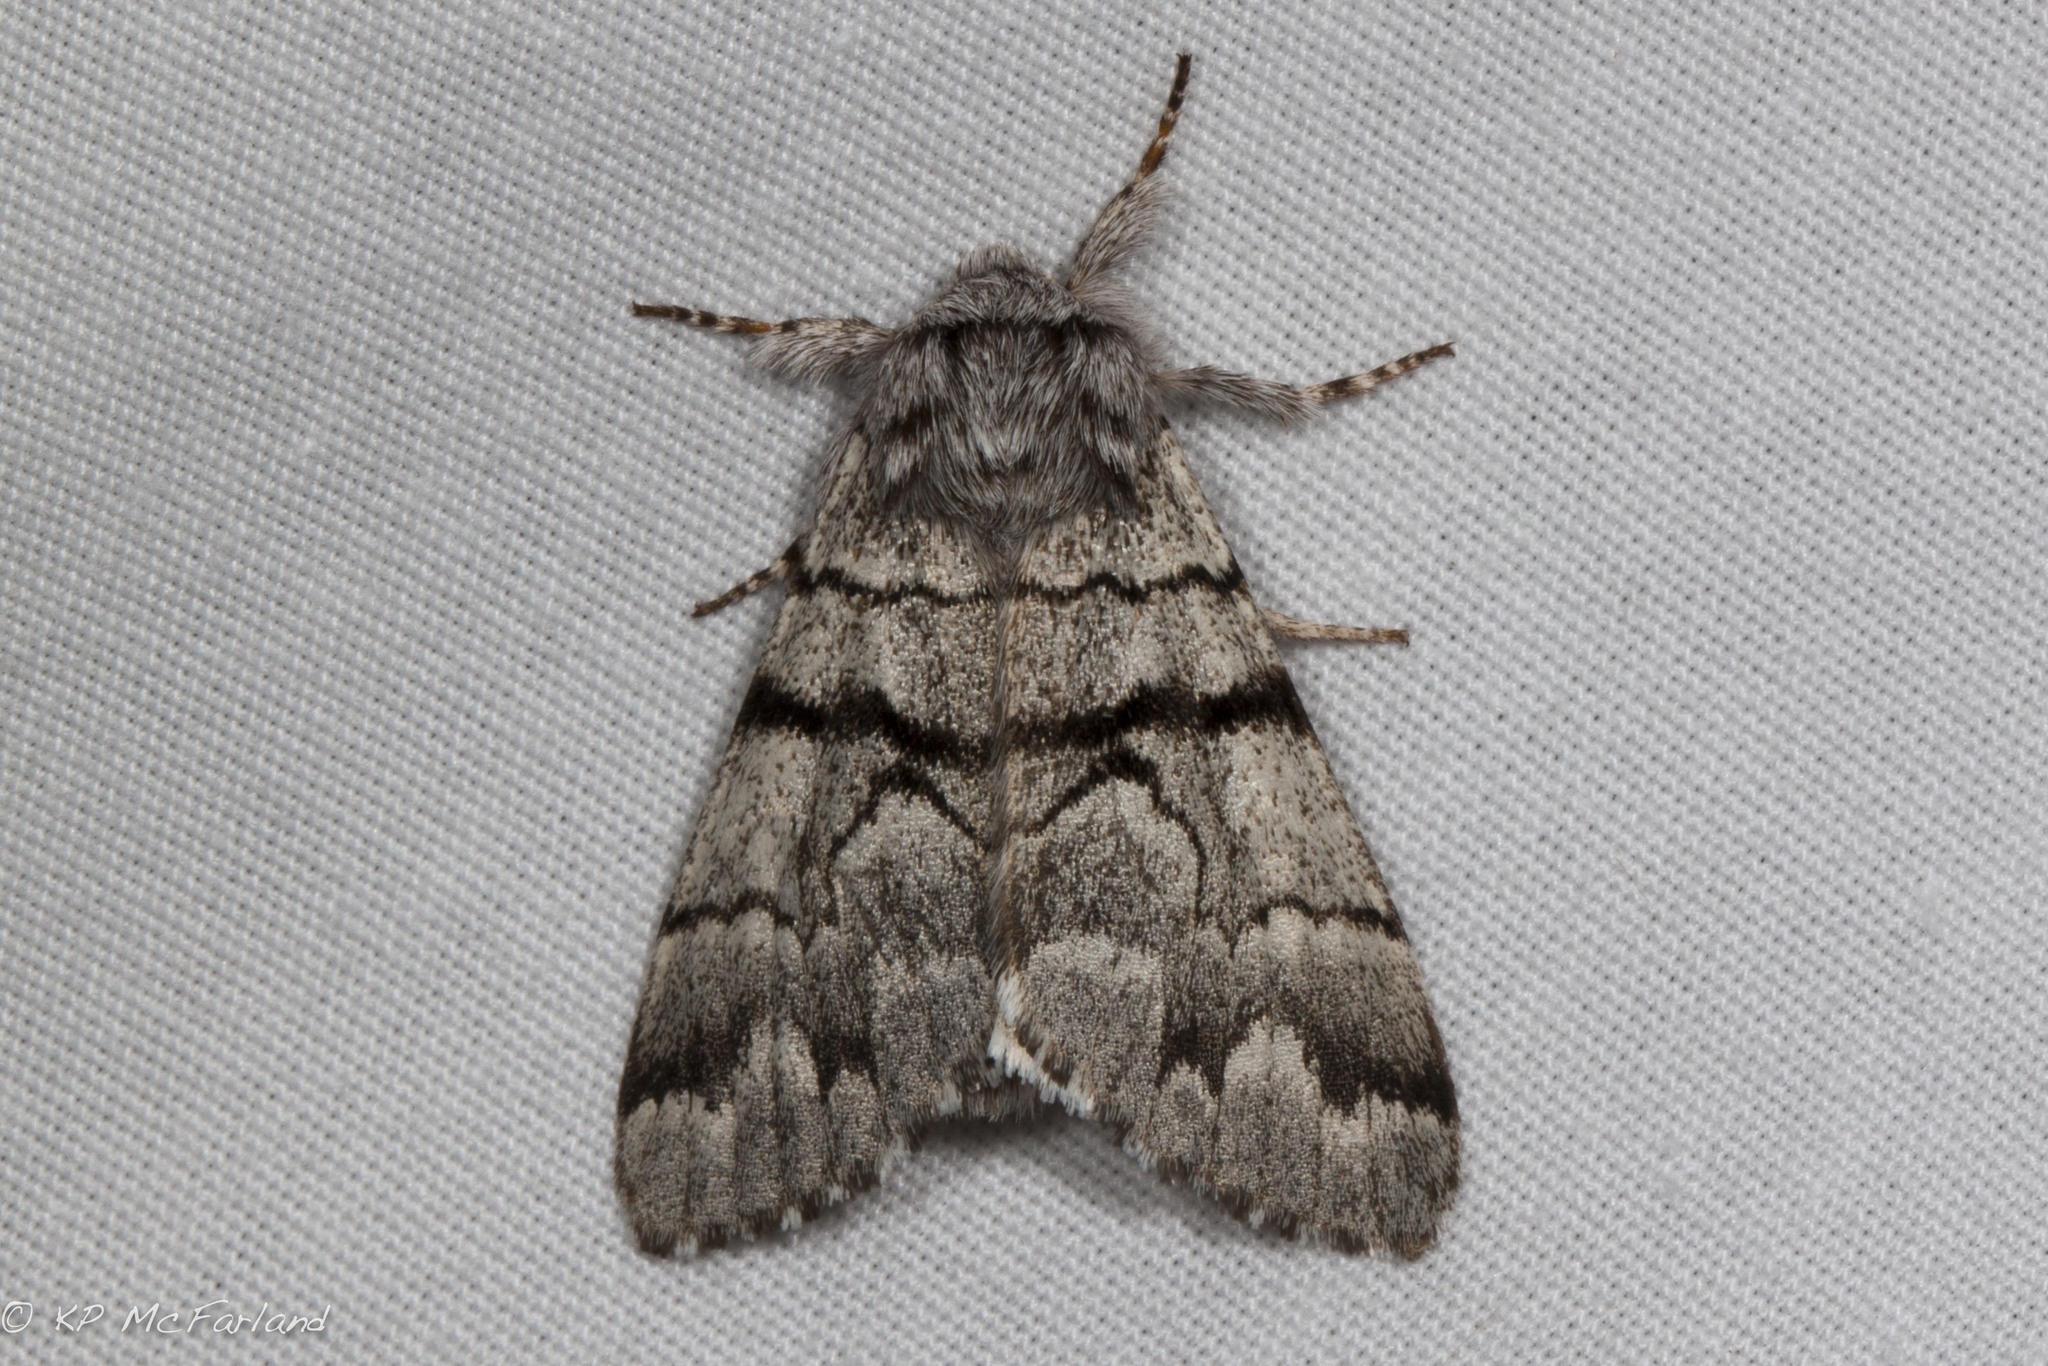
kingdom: Animalia
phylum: Arthropoda
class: Insecta
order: Lepidoptera
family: Noctuidae
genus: Panthea
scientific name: Panthea furcilla
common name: Eastern panthea moth
